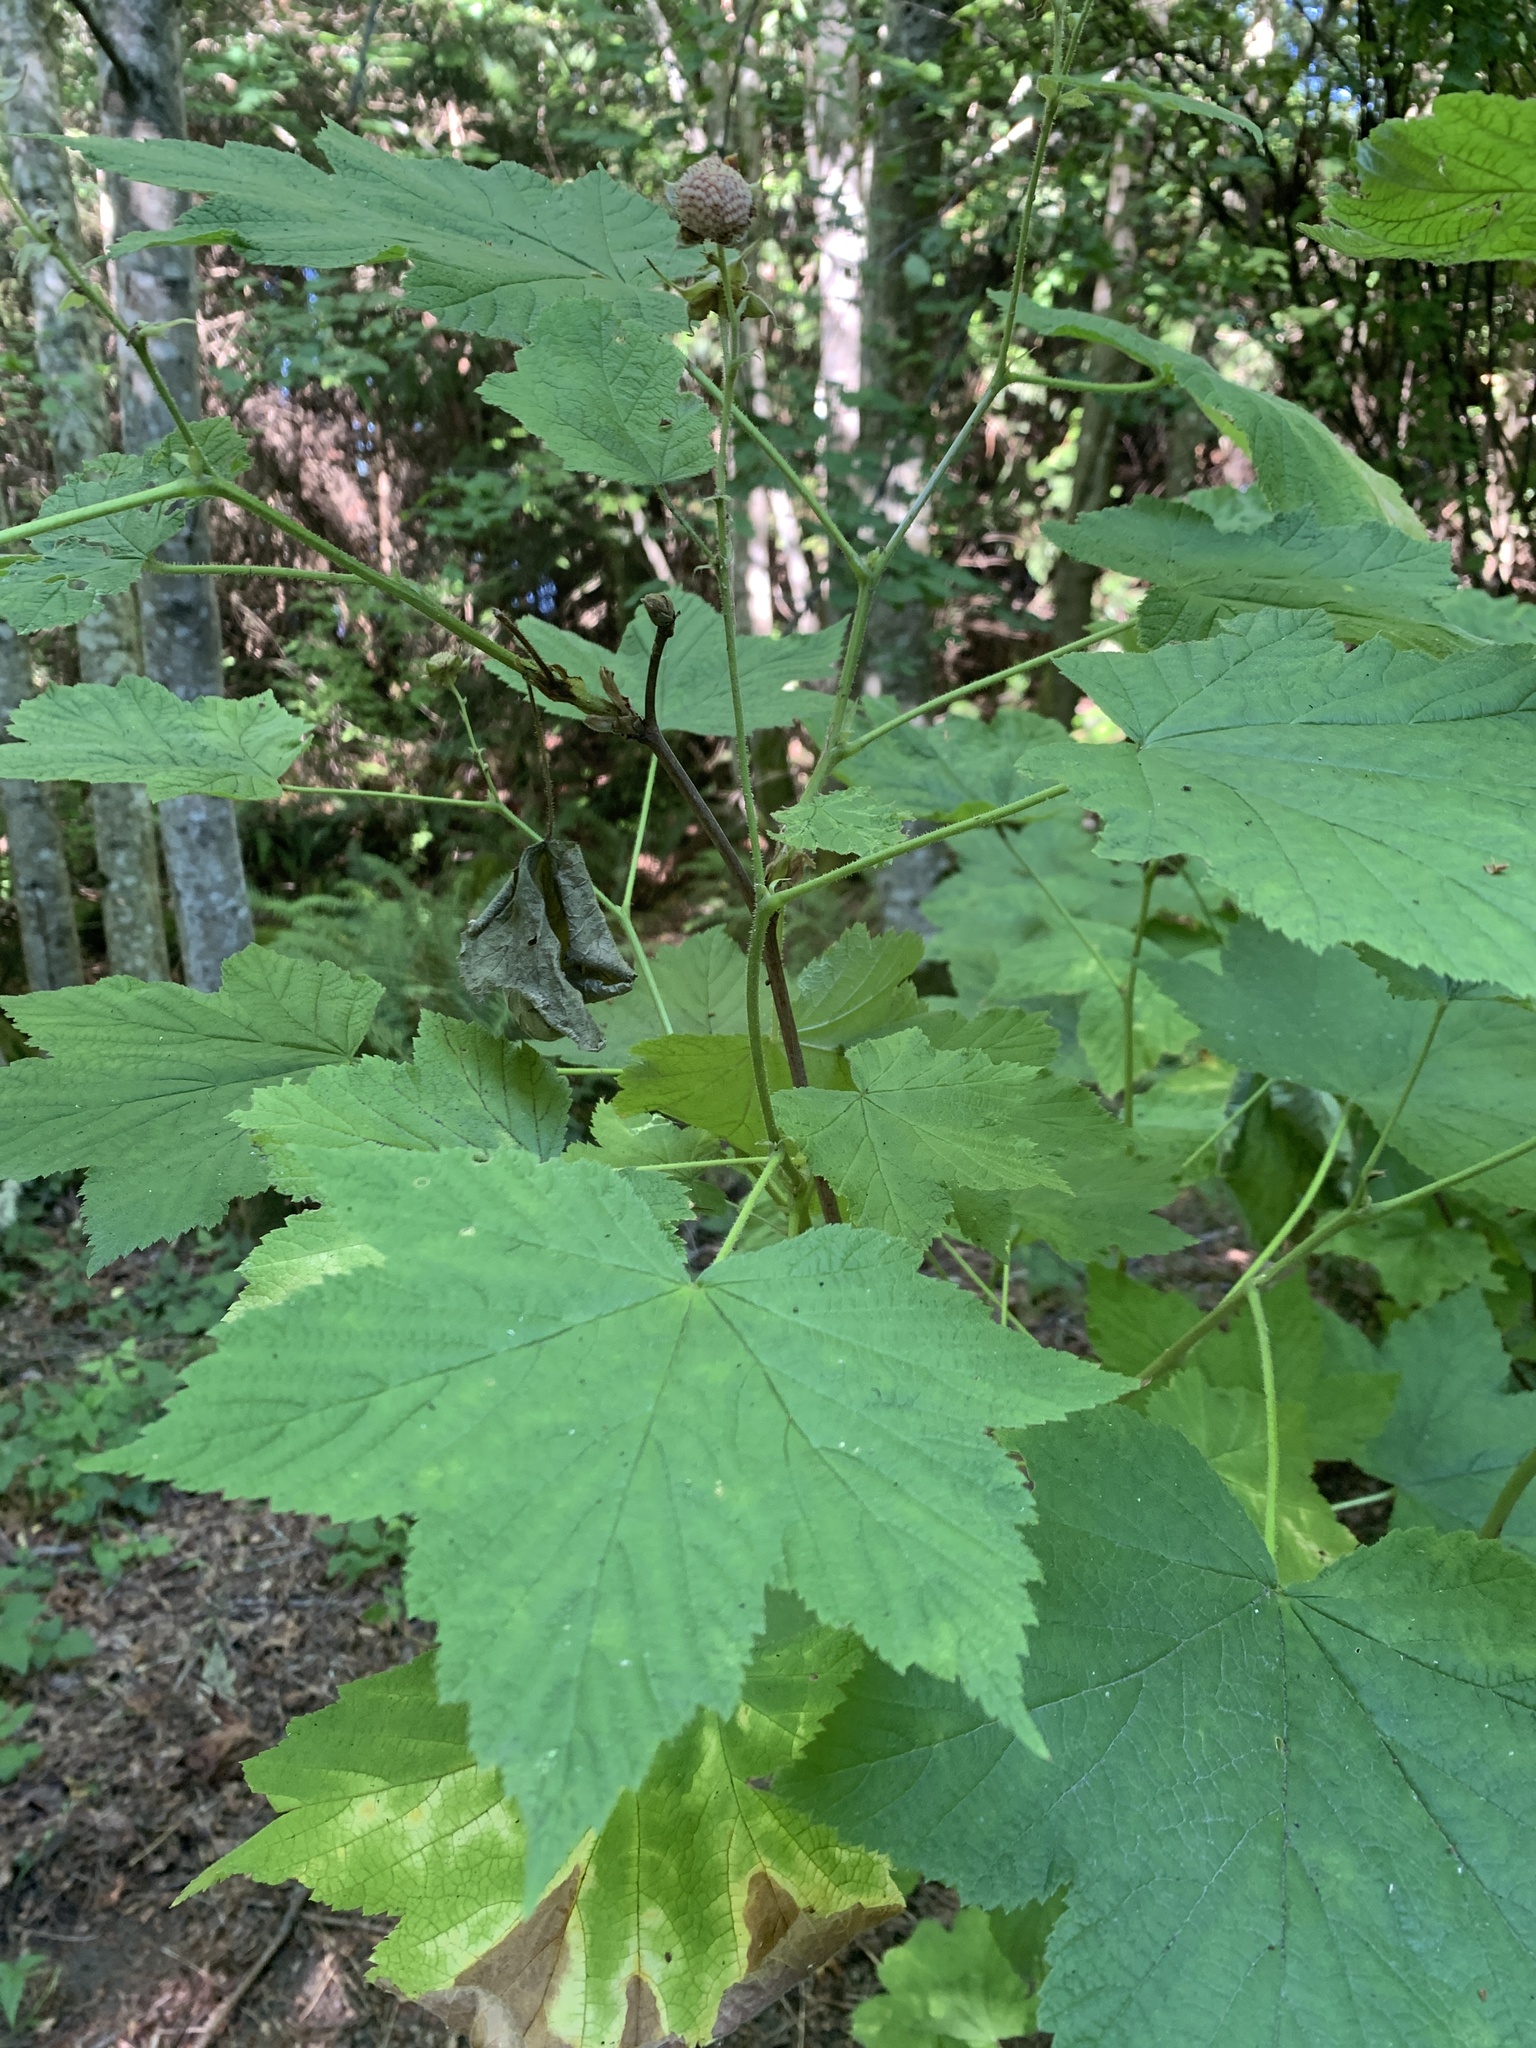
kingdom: Plantae
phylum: Tracheophyta
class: Magnoliopsida
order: Rosales
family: Rosaceae
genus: Rubus
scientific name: Rubus parviflorus
